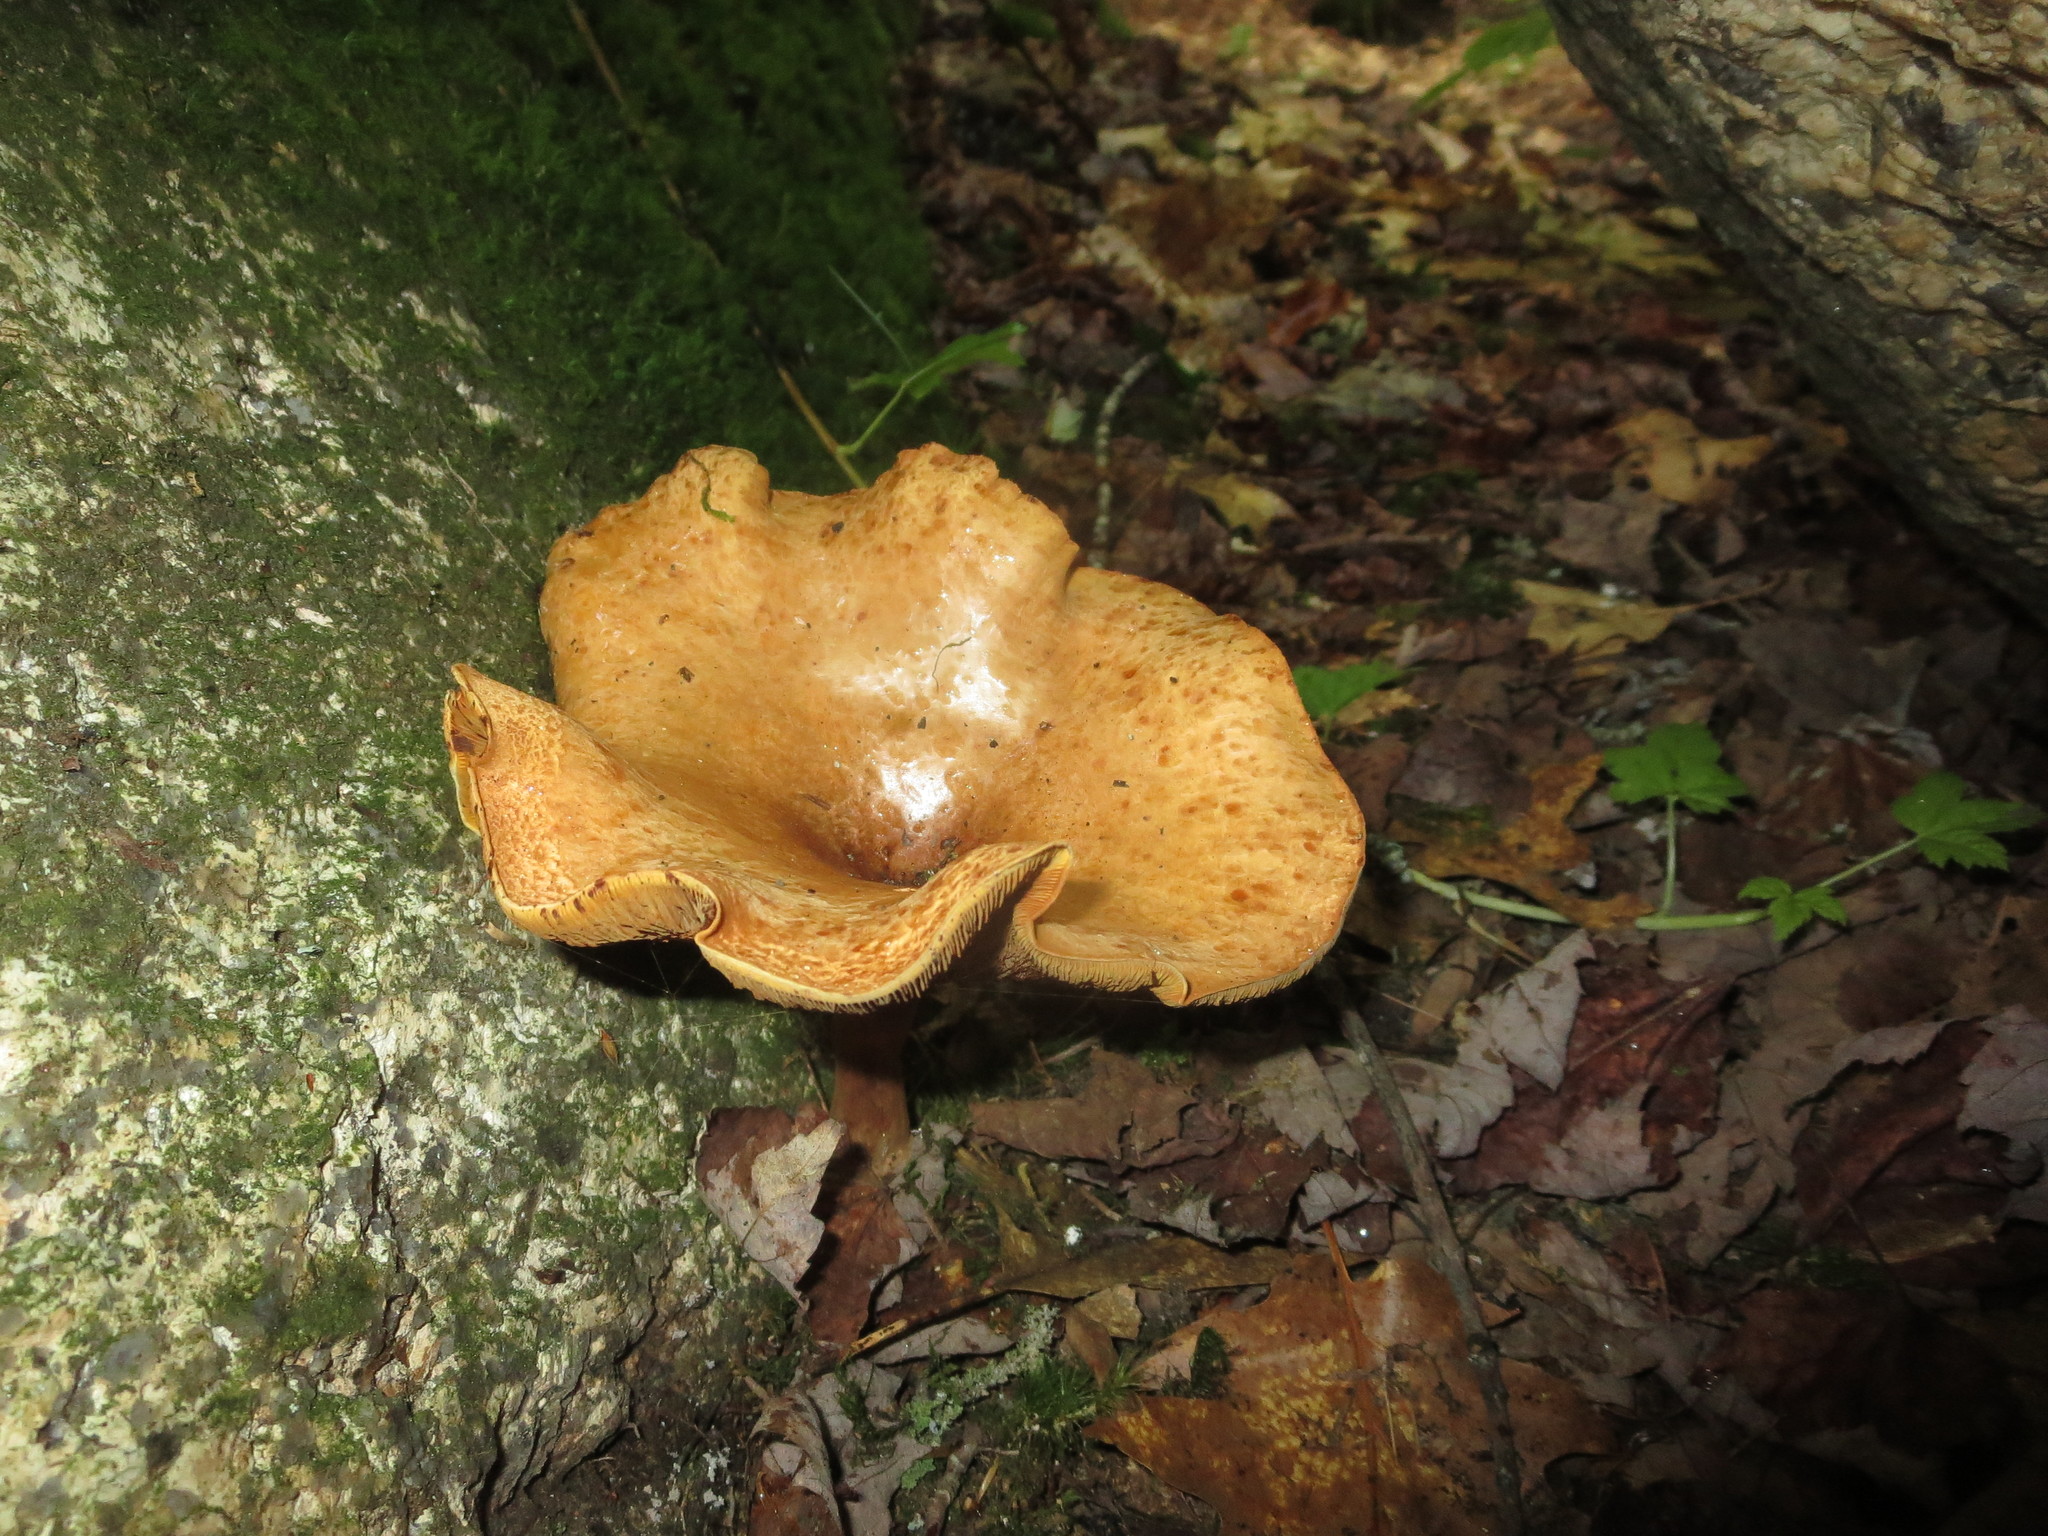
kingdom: Fungi
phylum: Basidiomycota
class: Agaricomycetes
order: Boletales
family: Paxillaceae
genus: Paxillus
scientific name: Paxillus involutus
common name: Brown roll rim
